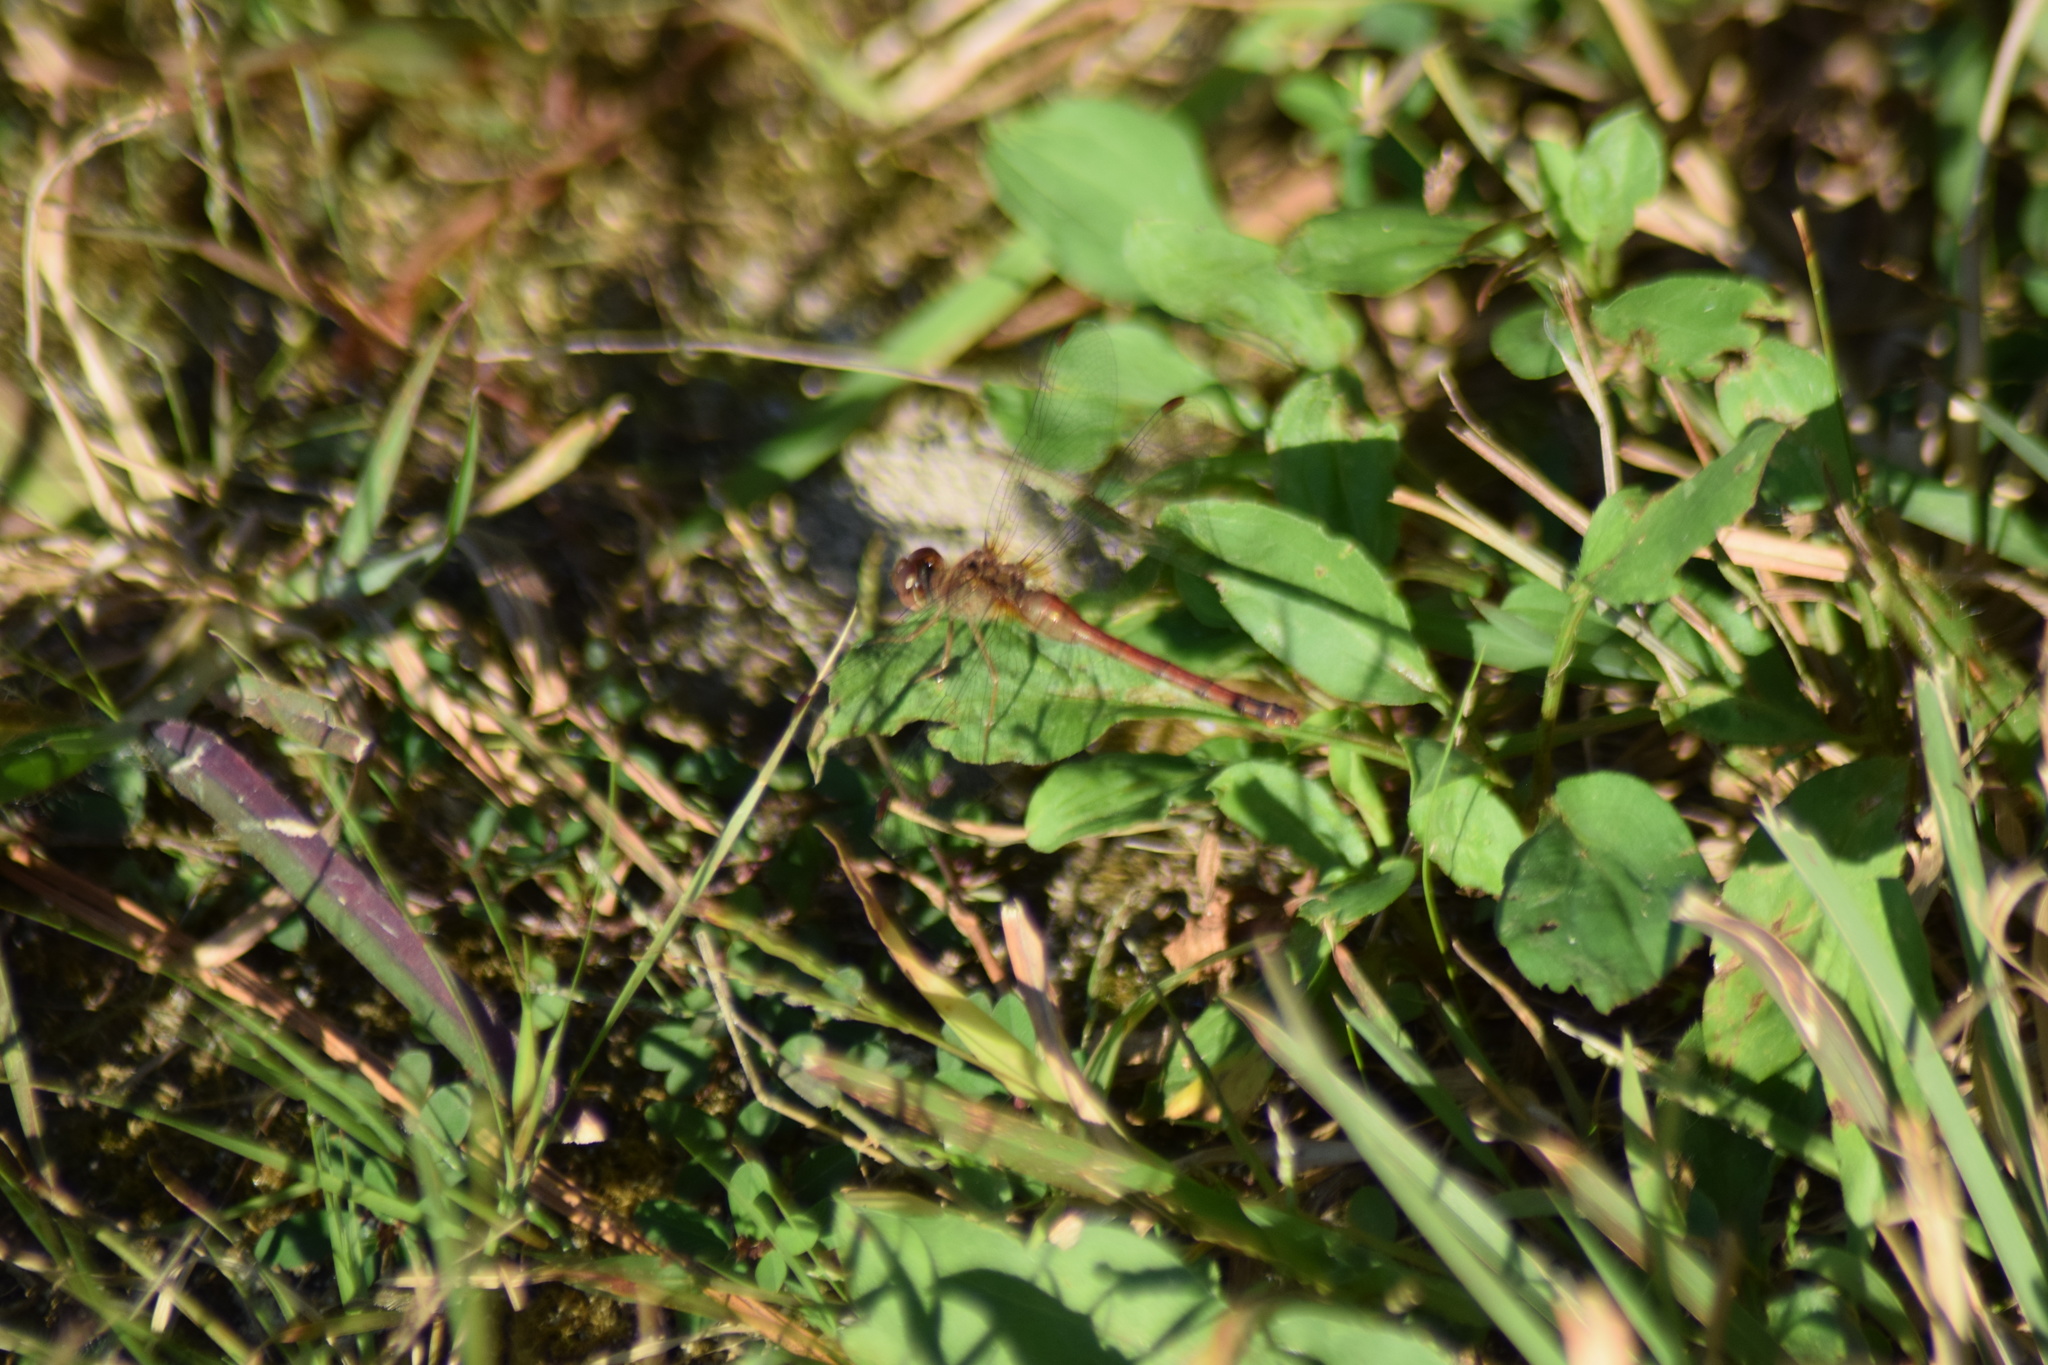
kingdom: Animalia
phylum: Arthropoda
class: Insecta
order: Odonata
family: Libellulidae
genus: Sympetrum
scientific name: Sympetrum vicinum
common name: Autumn meadowhawk
